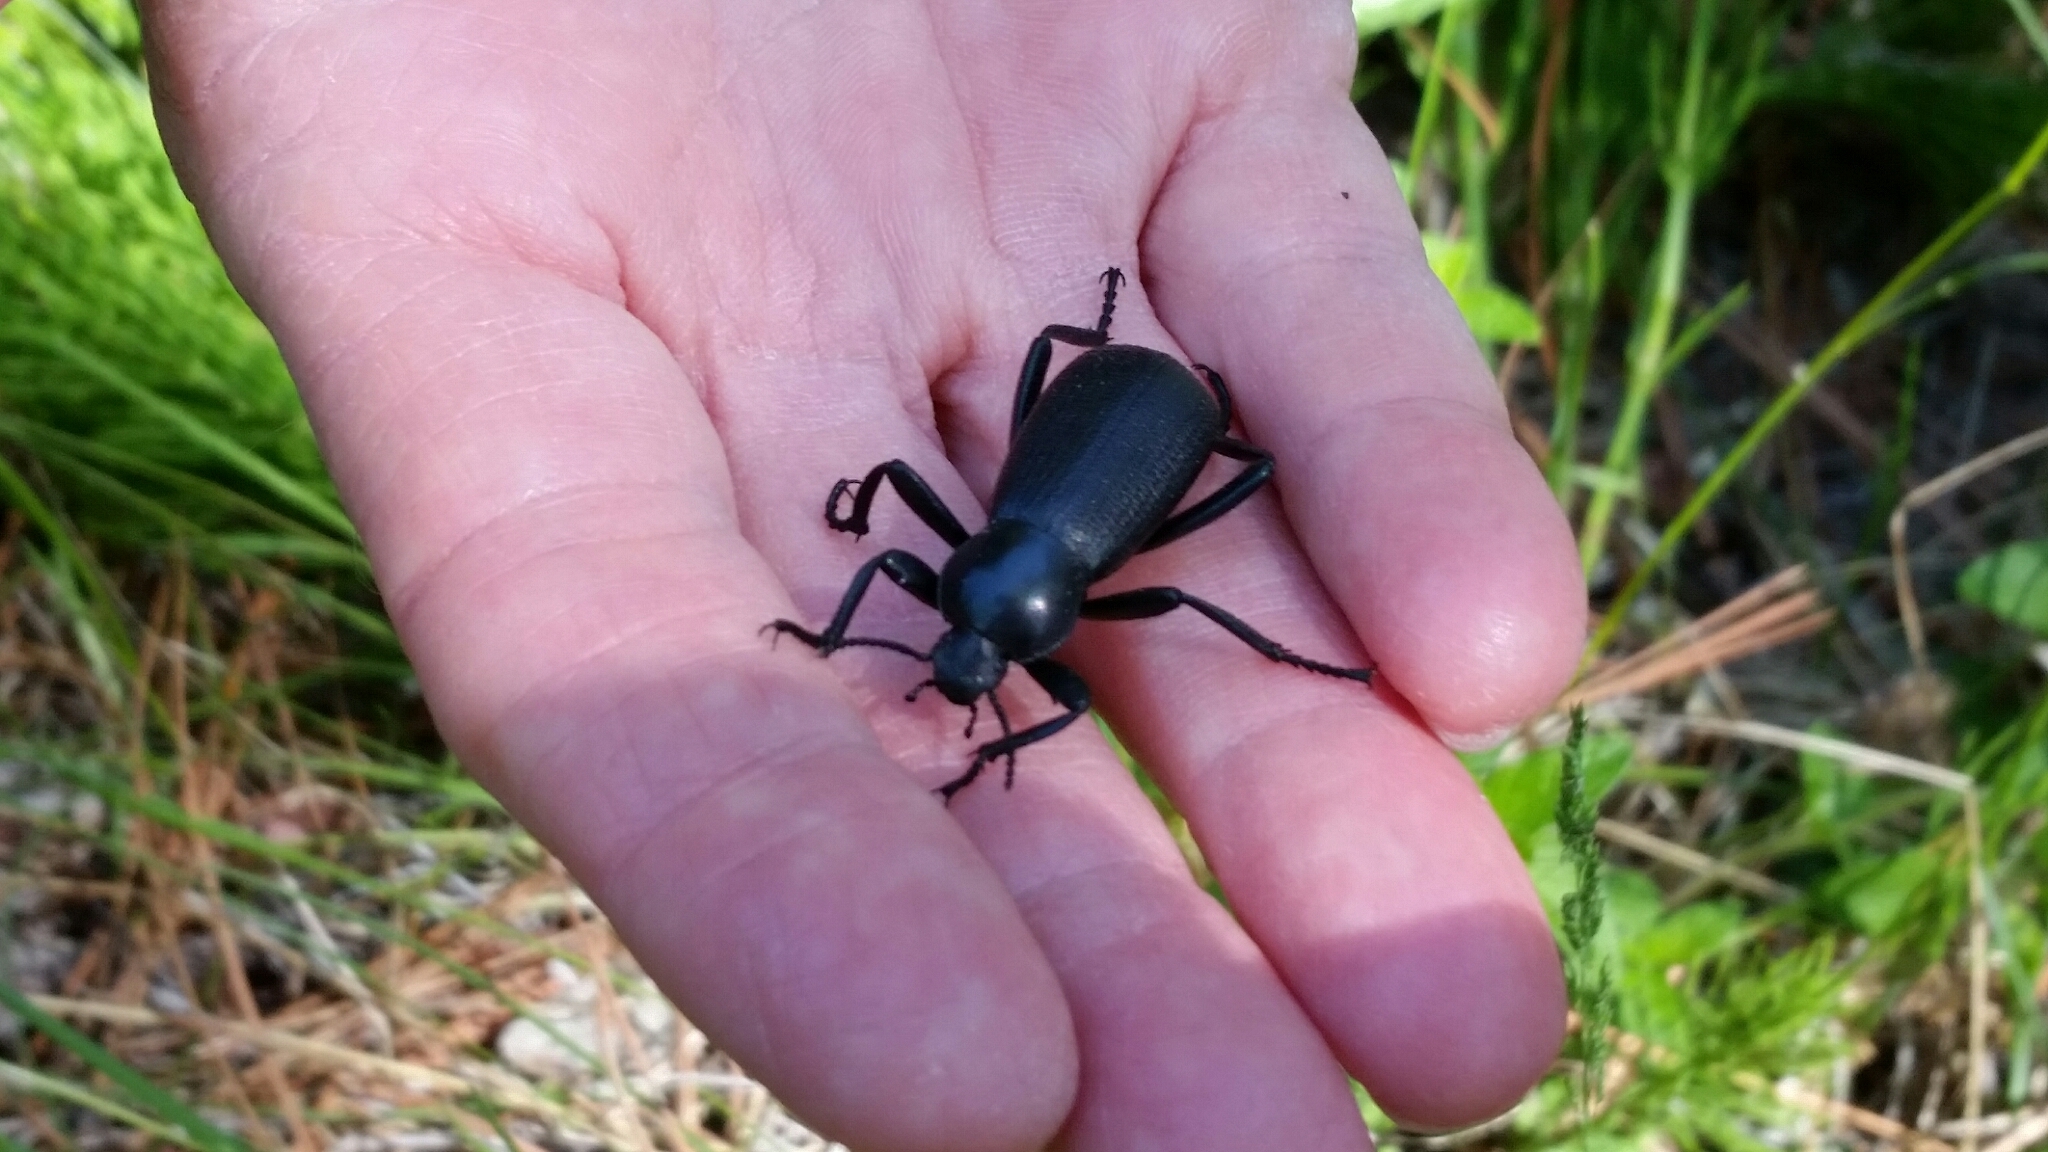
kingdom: Animalia
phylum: Arthropoda
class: Insecta
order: Coleoptera
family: Tenebrionidae
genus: Eleodes
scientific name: Eleodes obscura
